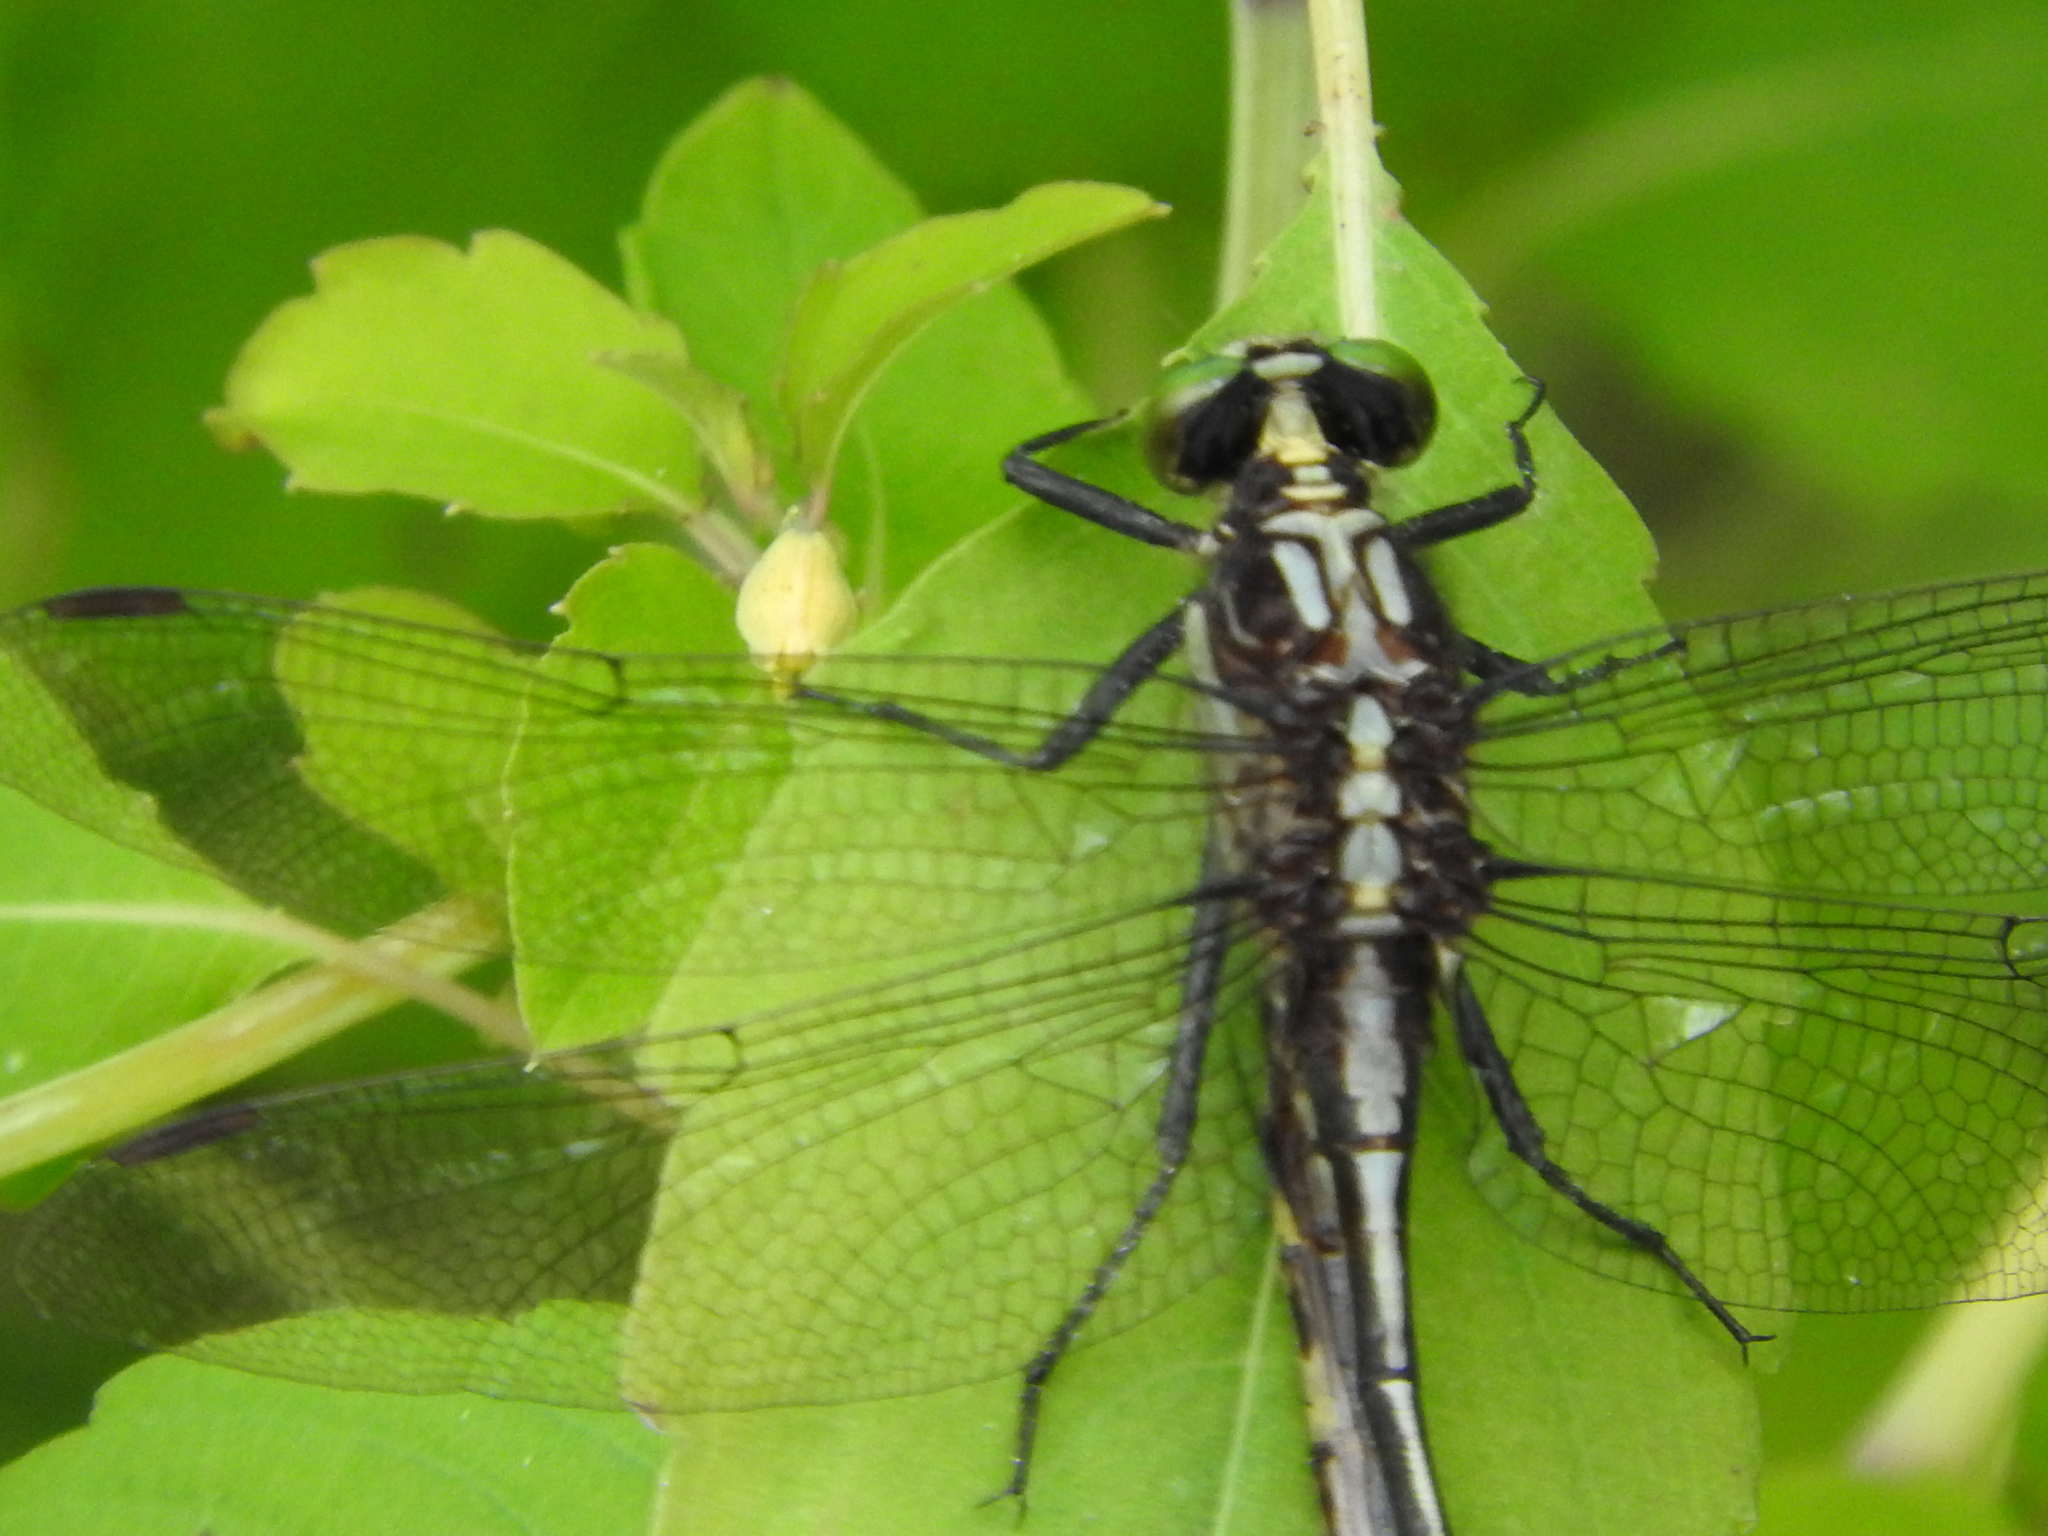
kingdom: Animalia
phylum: Arthropoda
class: Insecta
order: Odonata
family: Gomphidae
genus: Dromogomphus
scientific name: Dromogomphus spinosus
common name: Black-shouldered spinyleg
